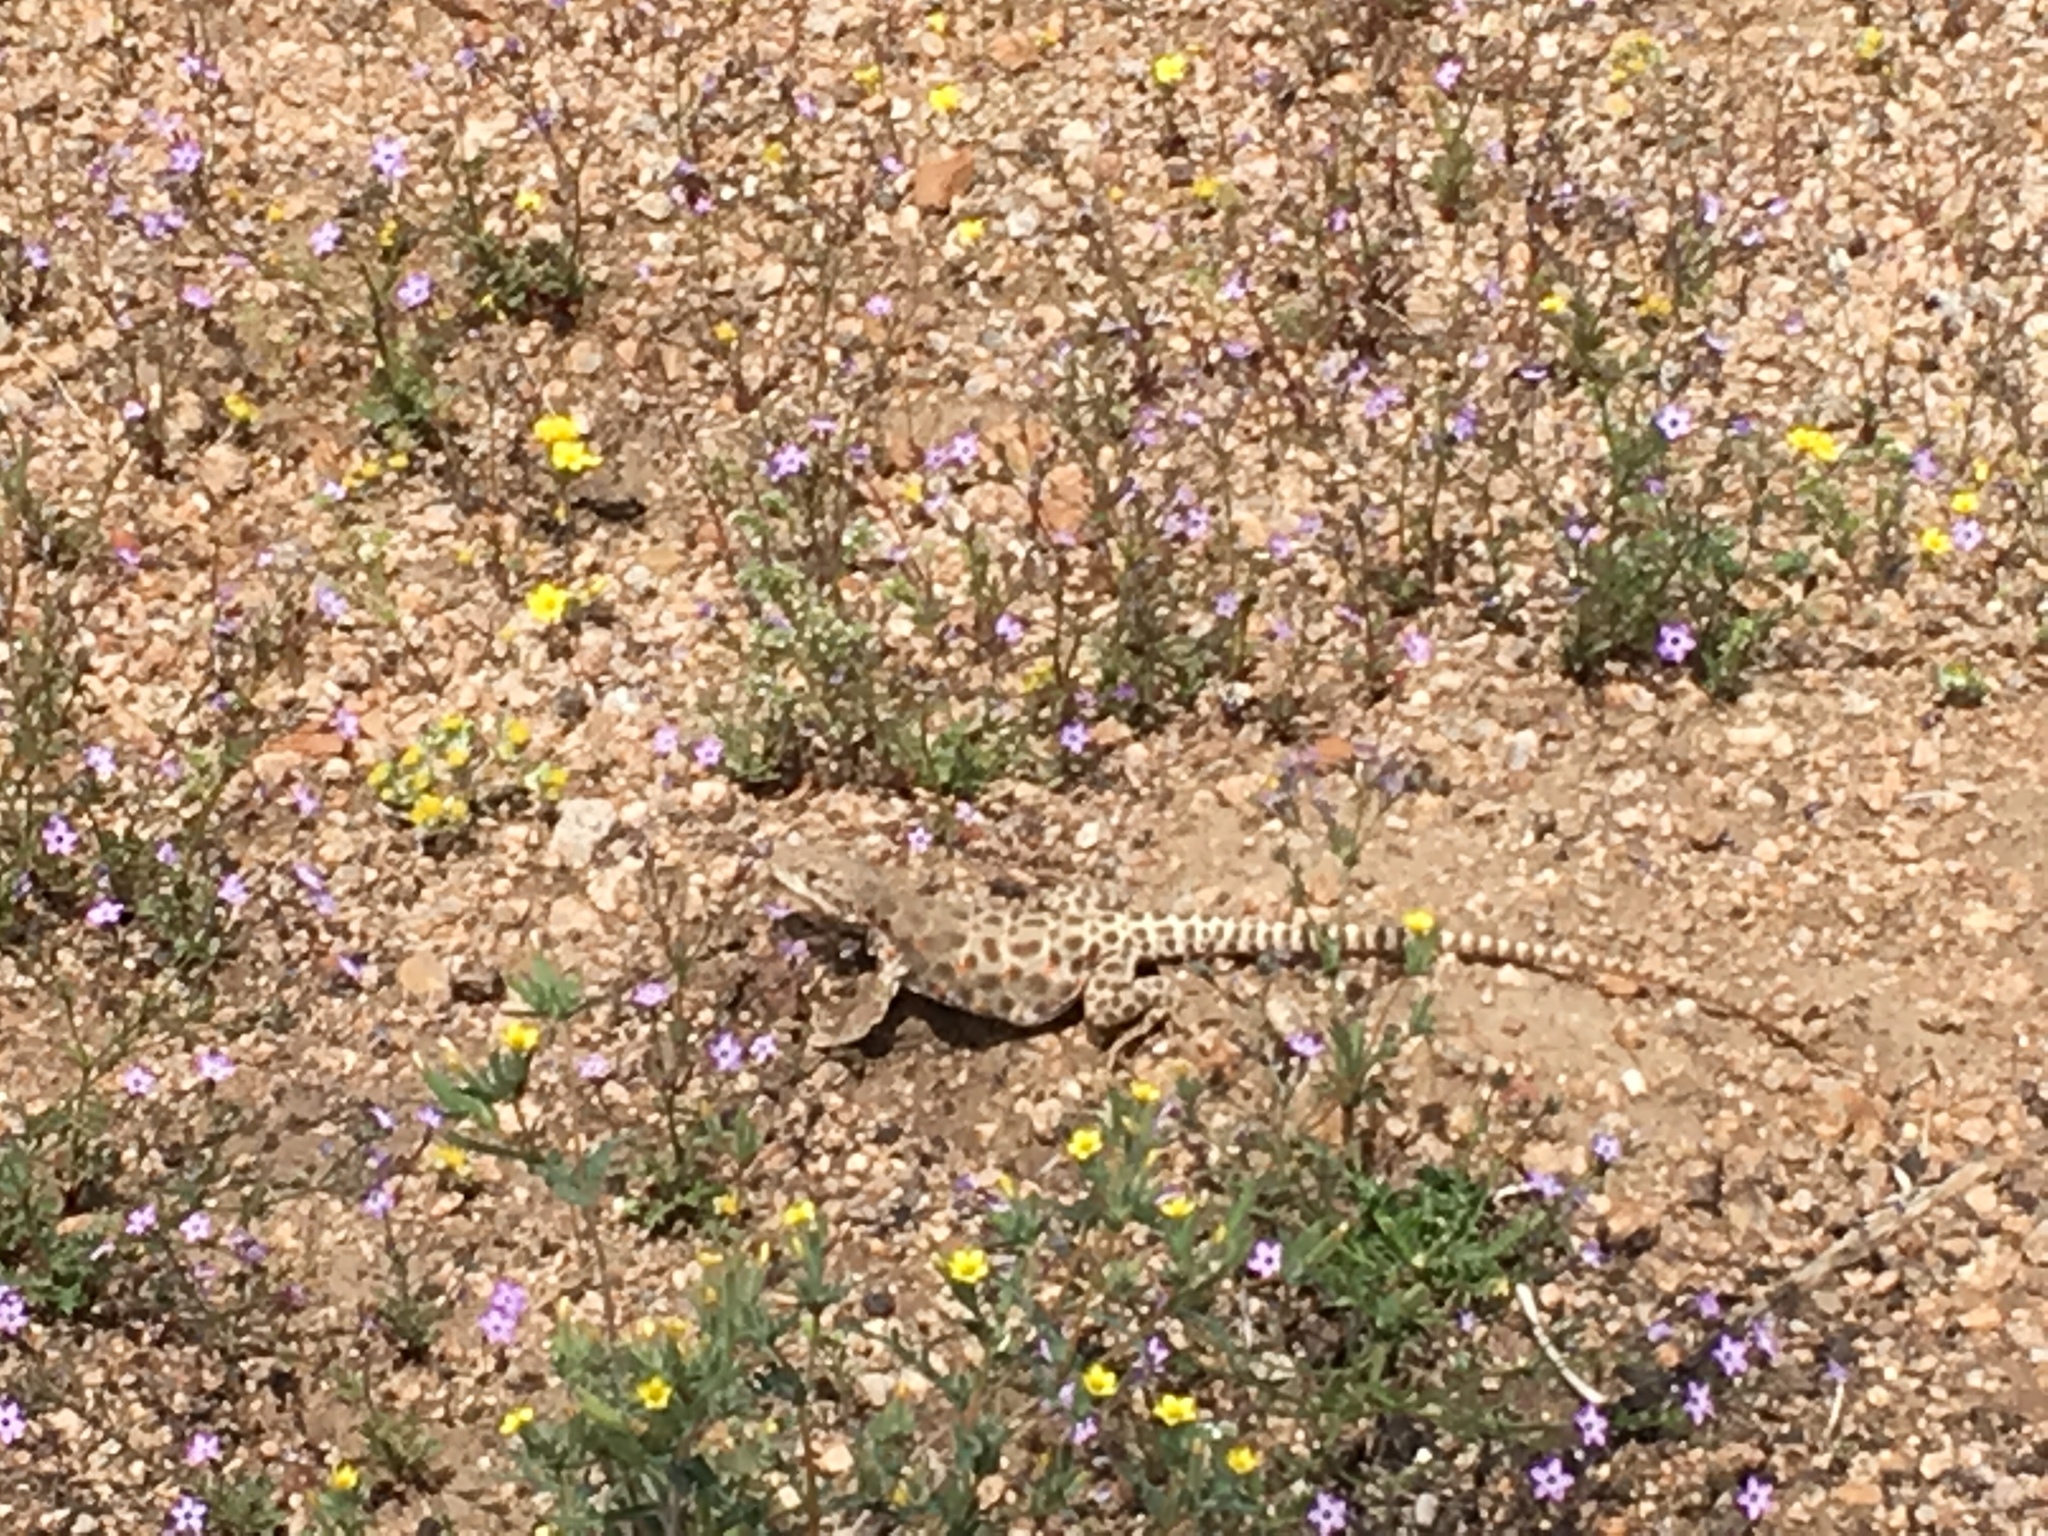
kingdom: Animalia
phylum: Chordata
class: Squamata
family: Crotaphytidae
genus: Gambelia
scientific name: Gambelia wislizenii
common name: Longnose leopard lizard
